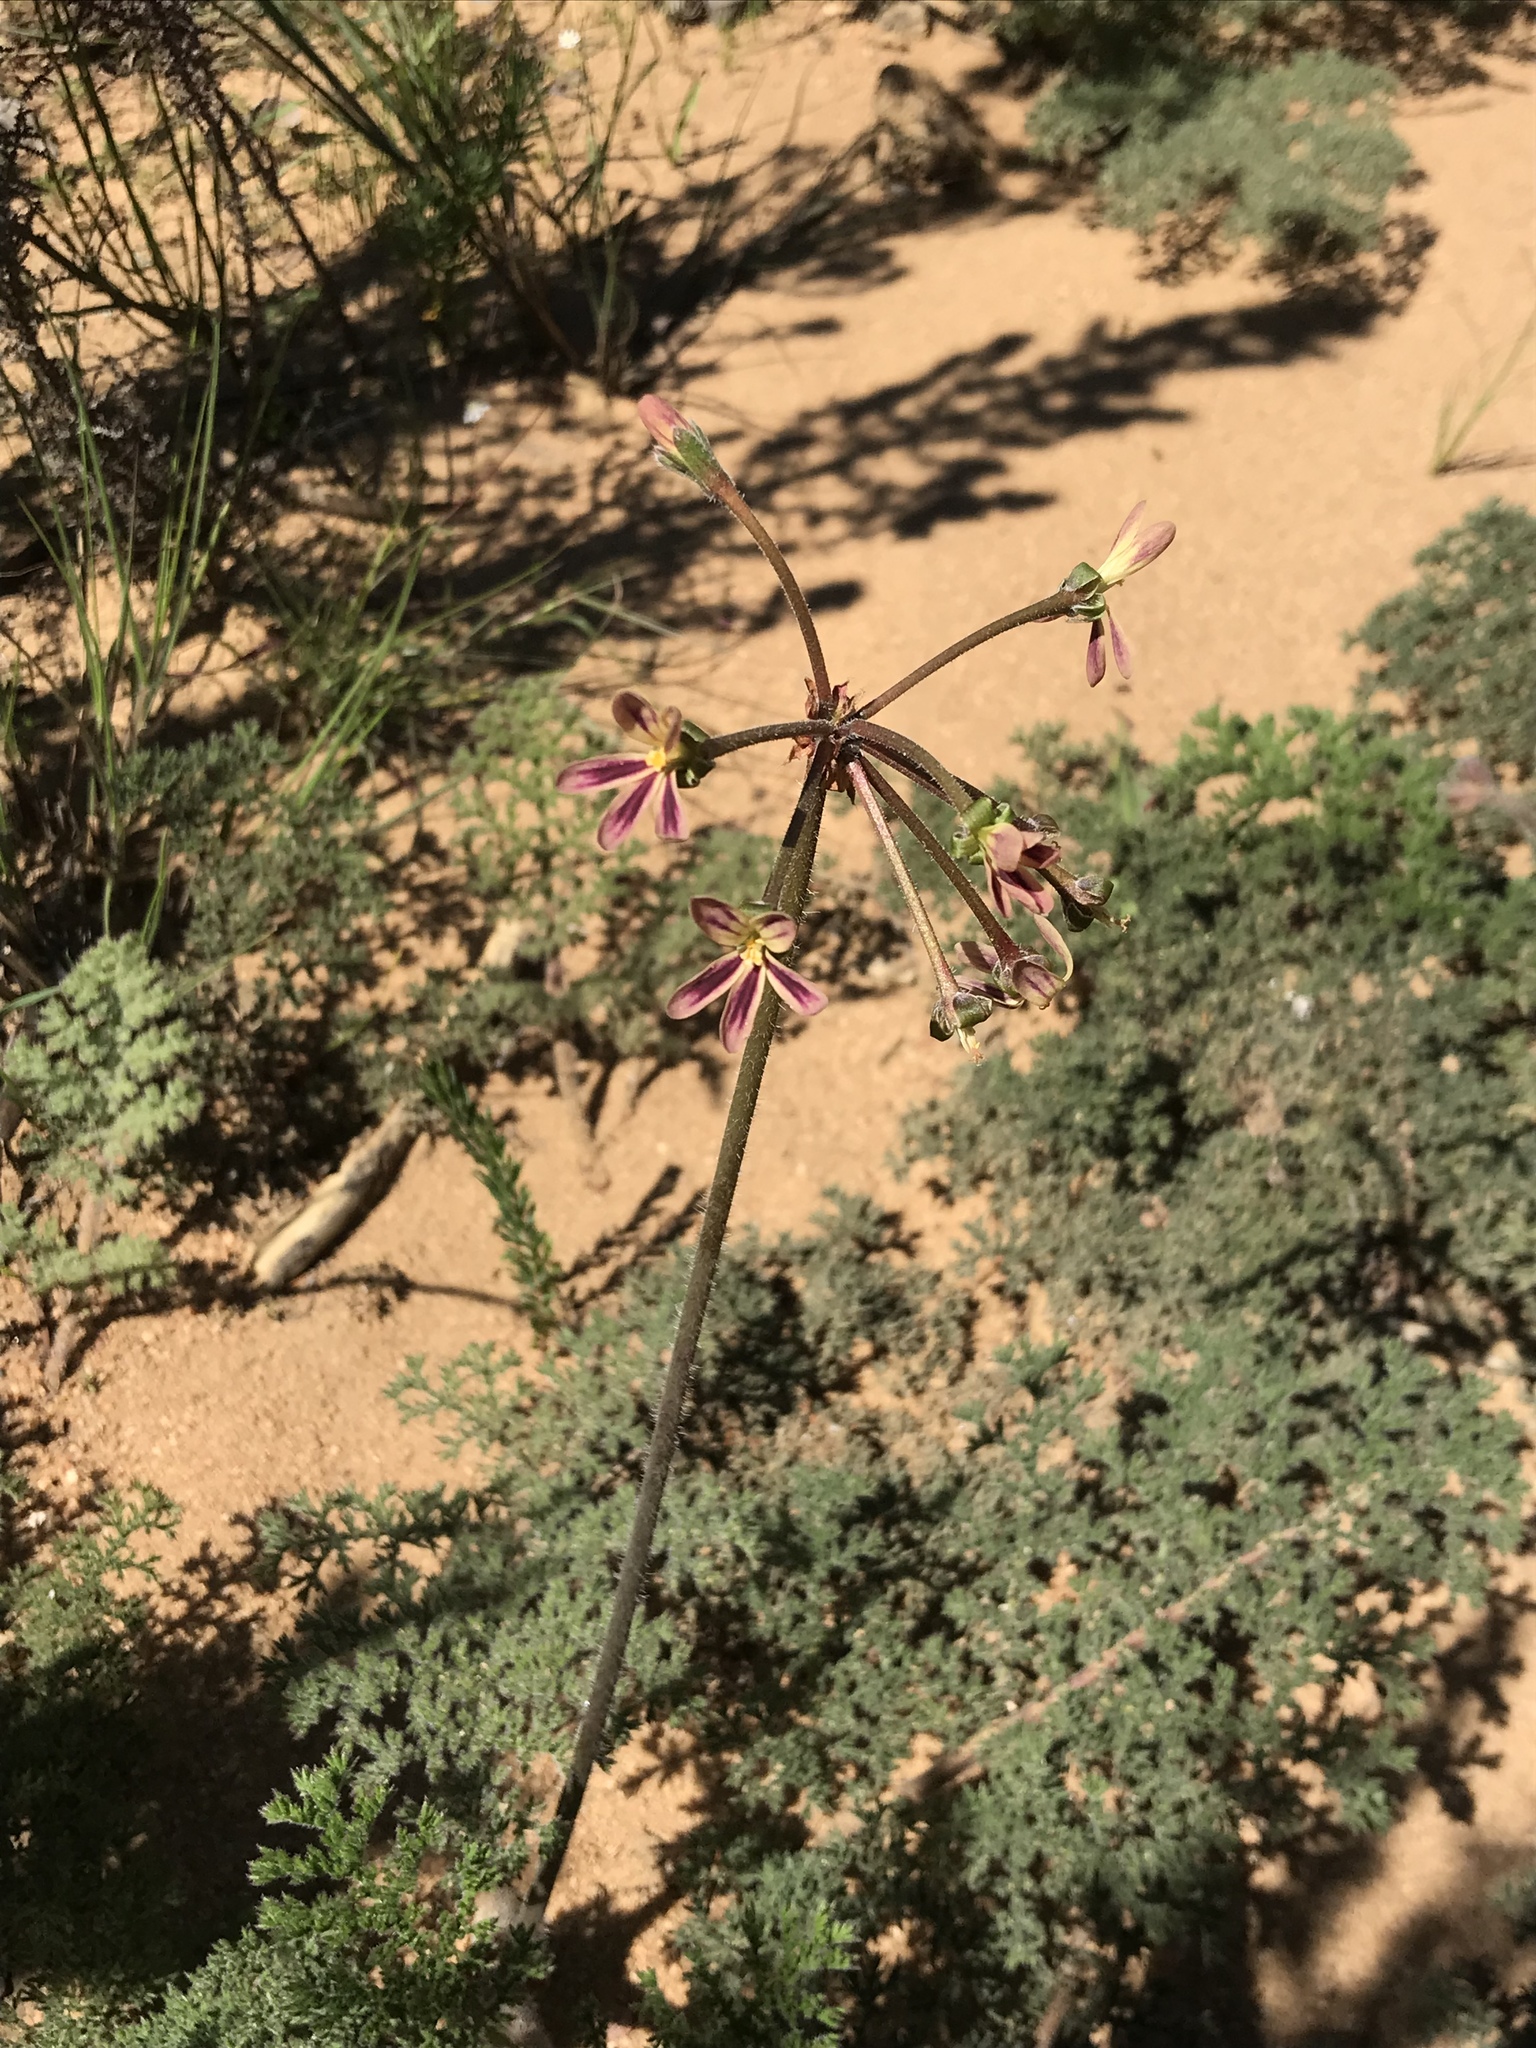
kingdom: Plantae
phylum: Tracheophyta
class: Magnoliopsida
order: Geraniales
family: Geraniaceae
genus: Pelargonium
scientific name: Pelargonium triste
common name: Night-scent pelargonium
